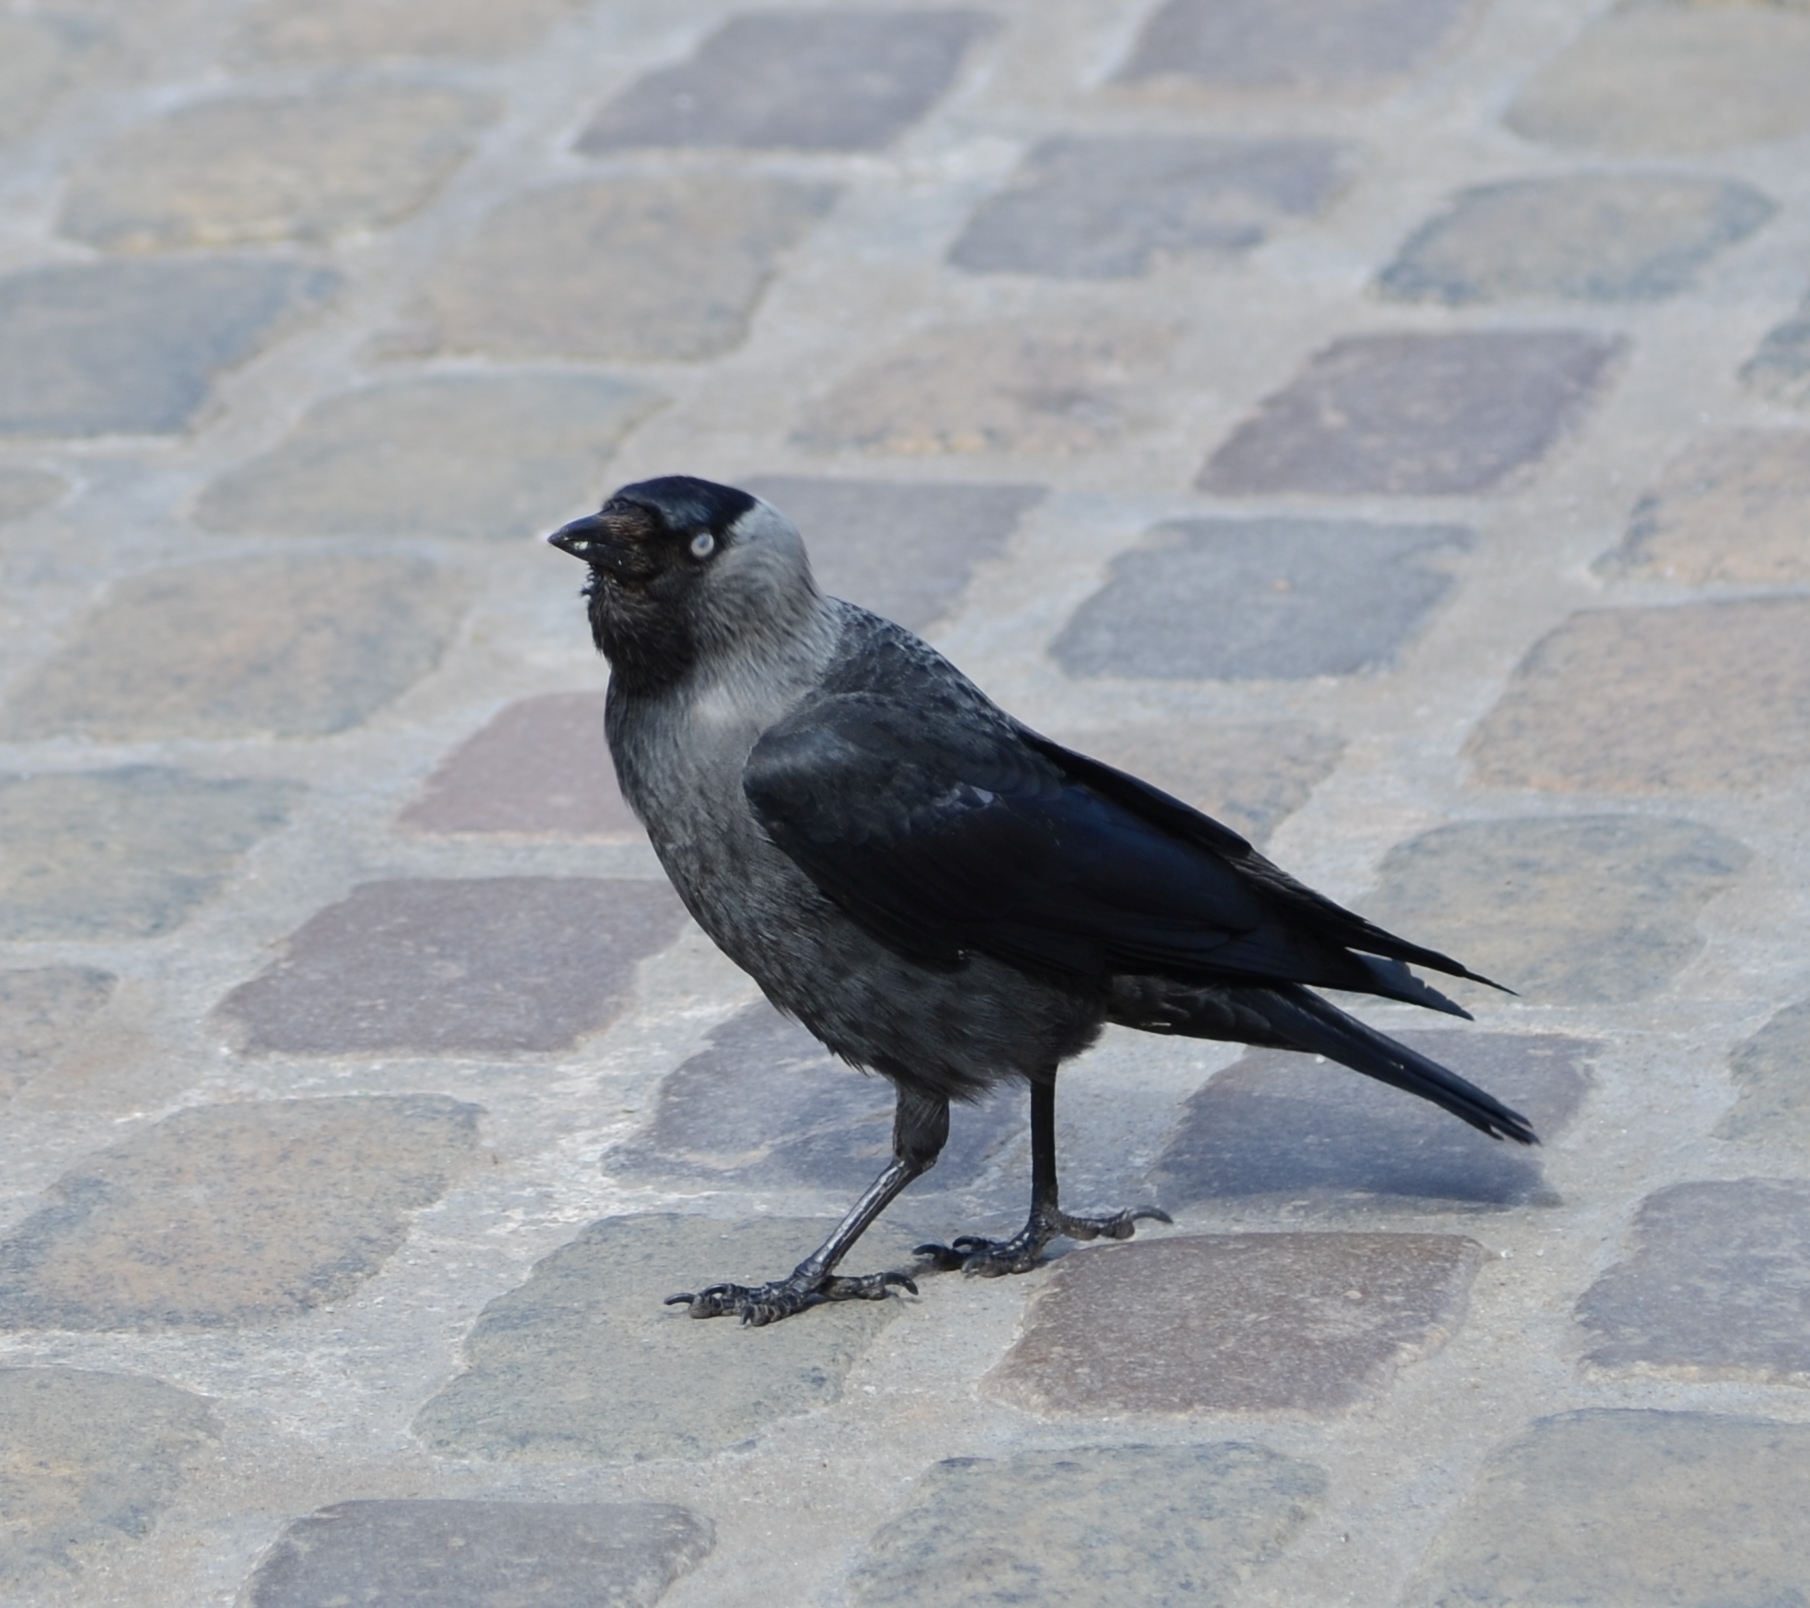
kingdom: Animalia
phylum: Chordata
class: Aves
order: Passeriformes
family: Corvidae
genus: Coloeus
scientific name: Coloeus monedula
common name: Western jackdaw
